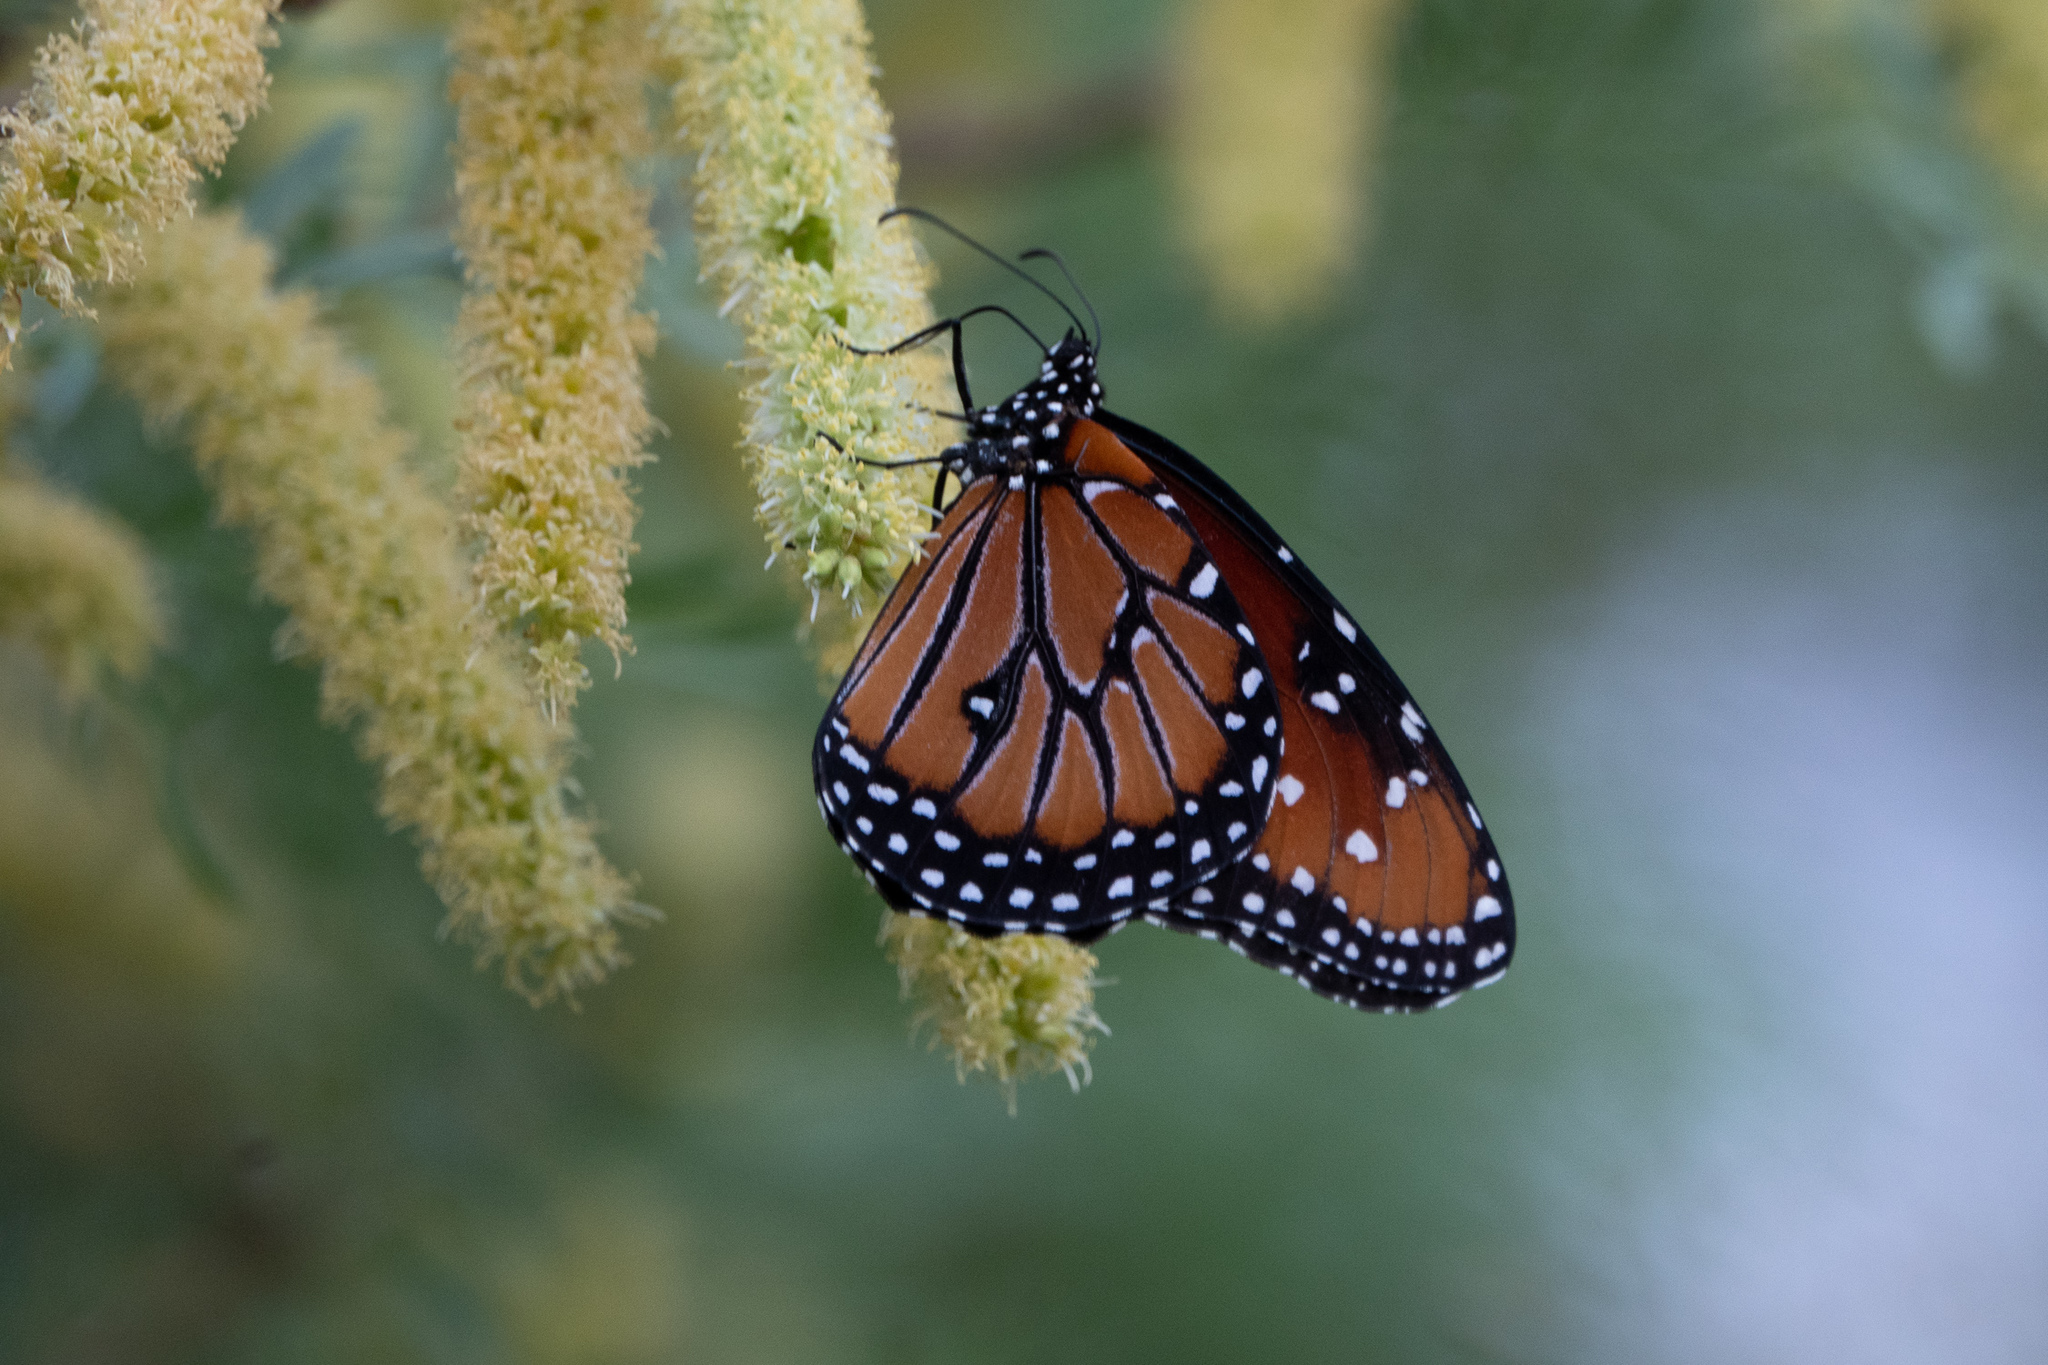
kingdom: Animalia
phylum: Arthropoda
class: Insecta
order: Lepidoptera
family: Nymphalidae
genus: Danaus
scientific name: Danaus gilippus
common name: Queen
